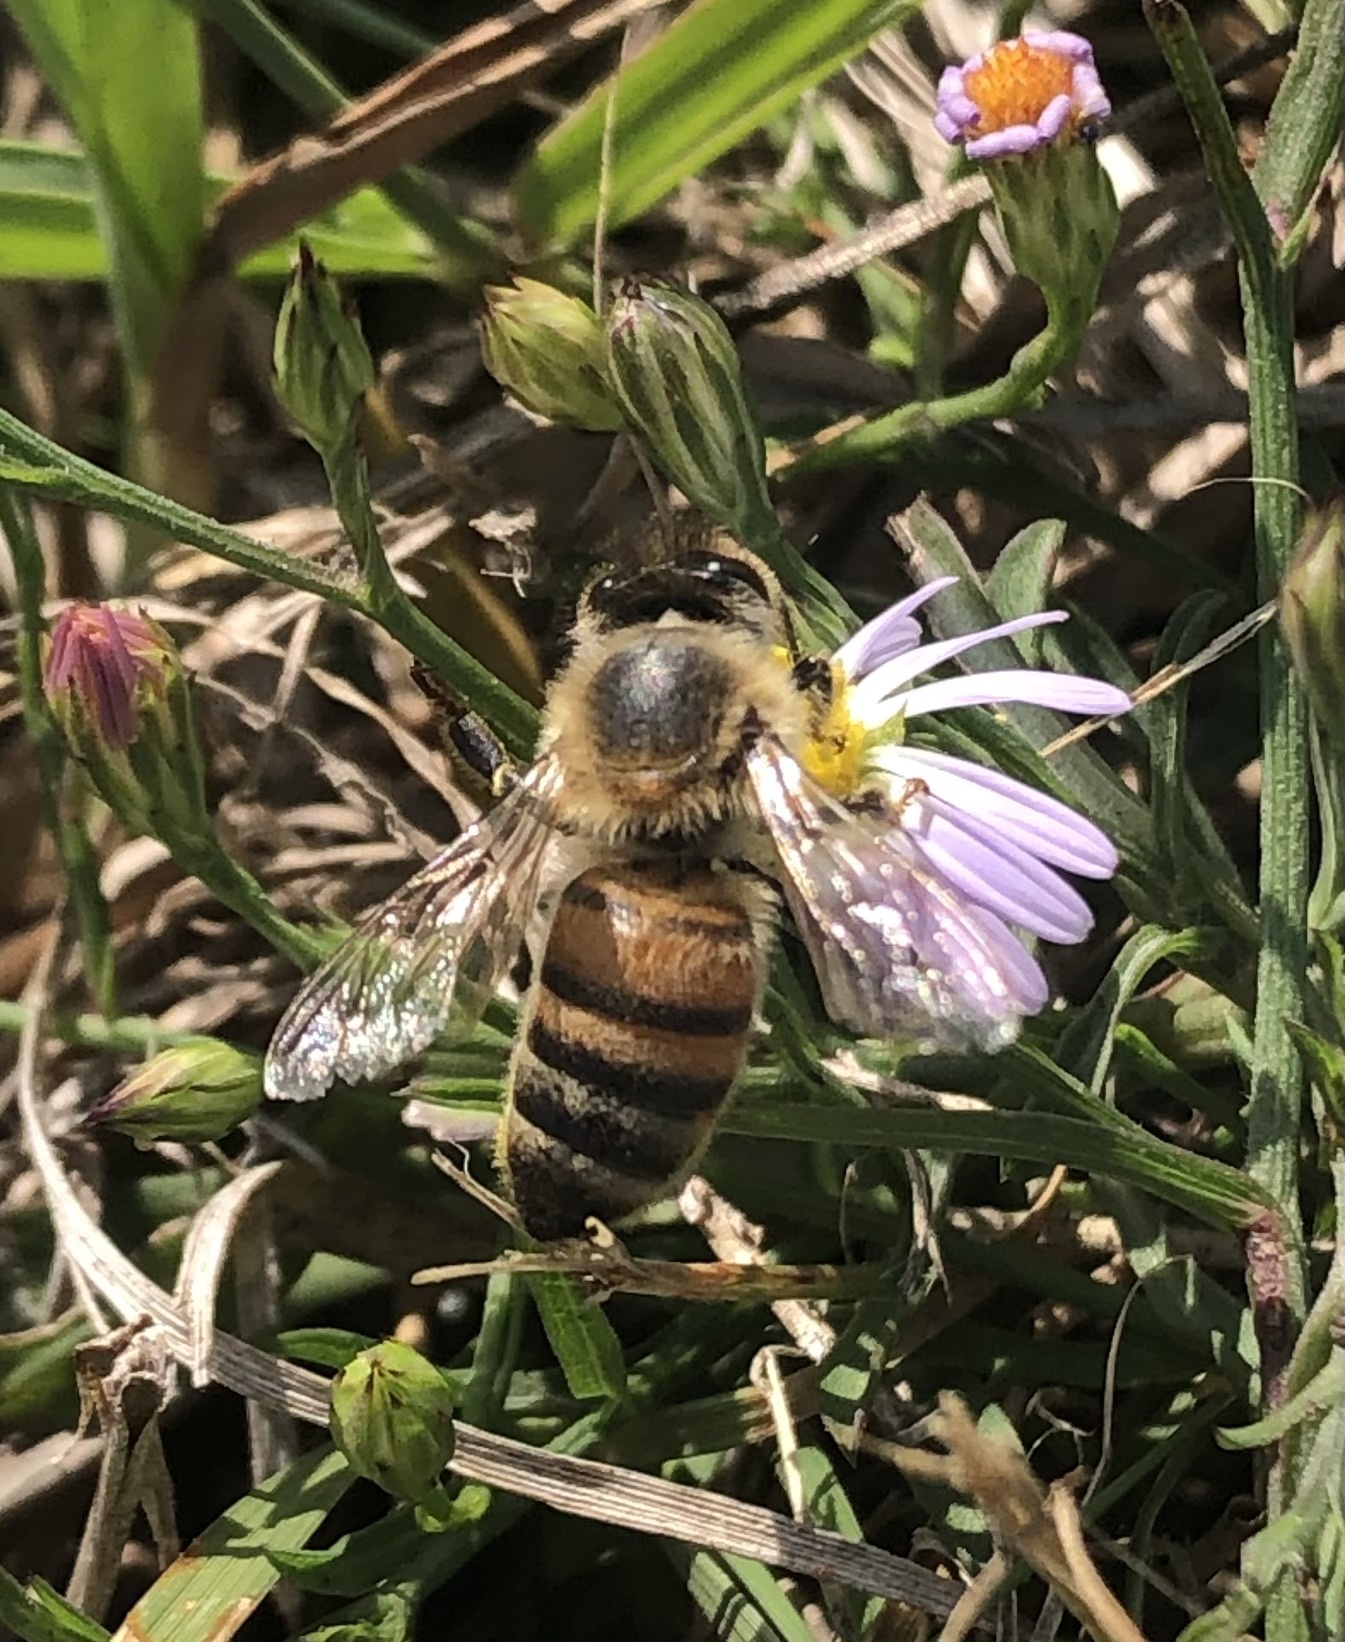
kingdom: Animalia
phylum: Arthropoda
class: Insecta
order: Hymenoptera
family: Apidae
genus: Apis
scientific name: Apis mellifera
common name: Honey bee
